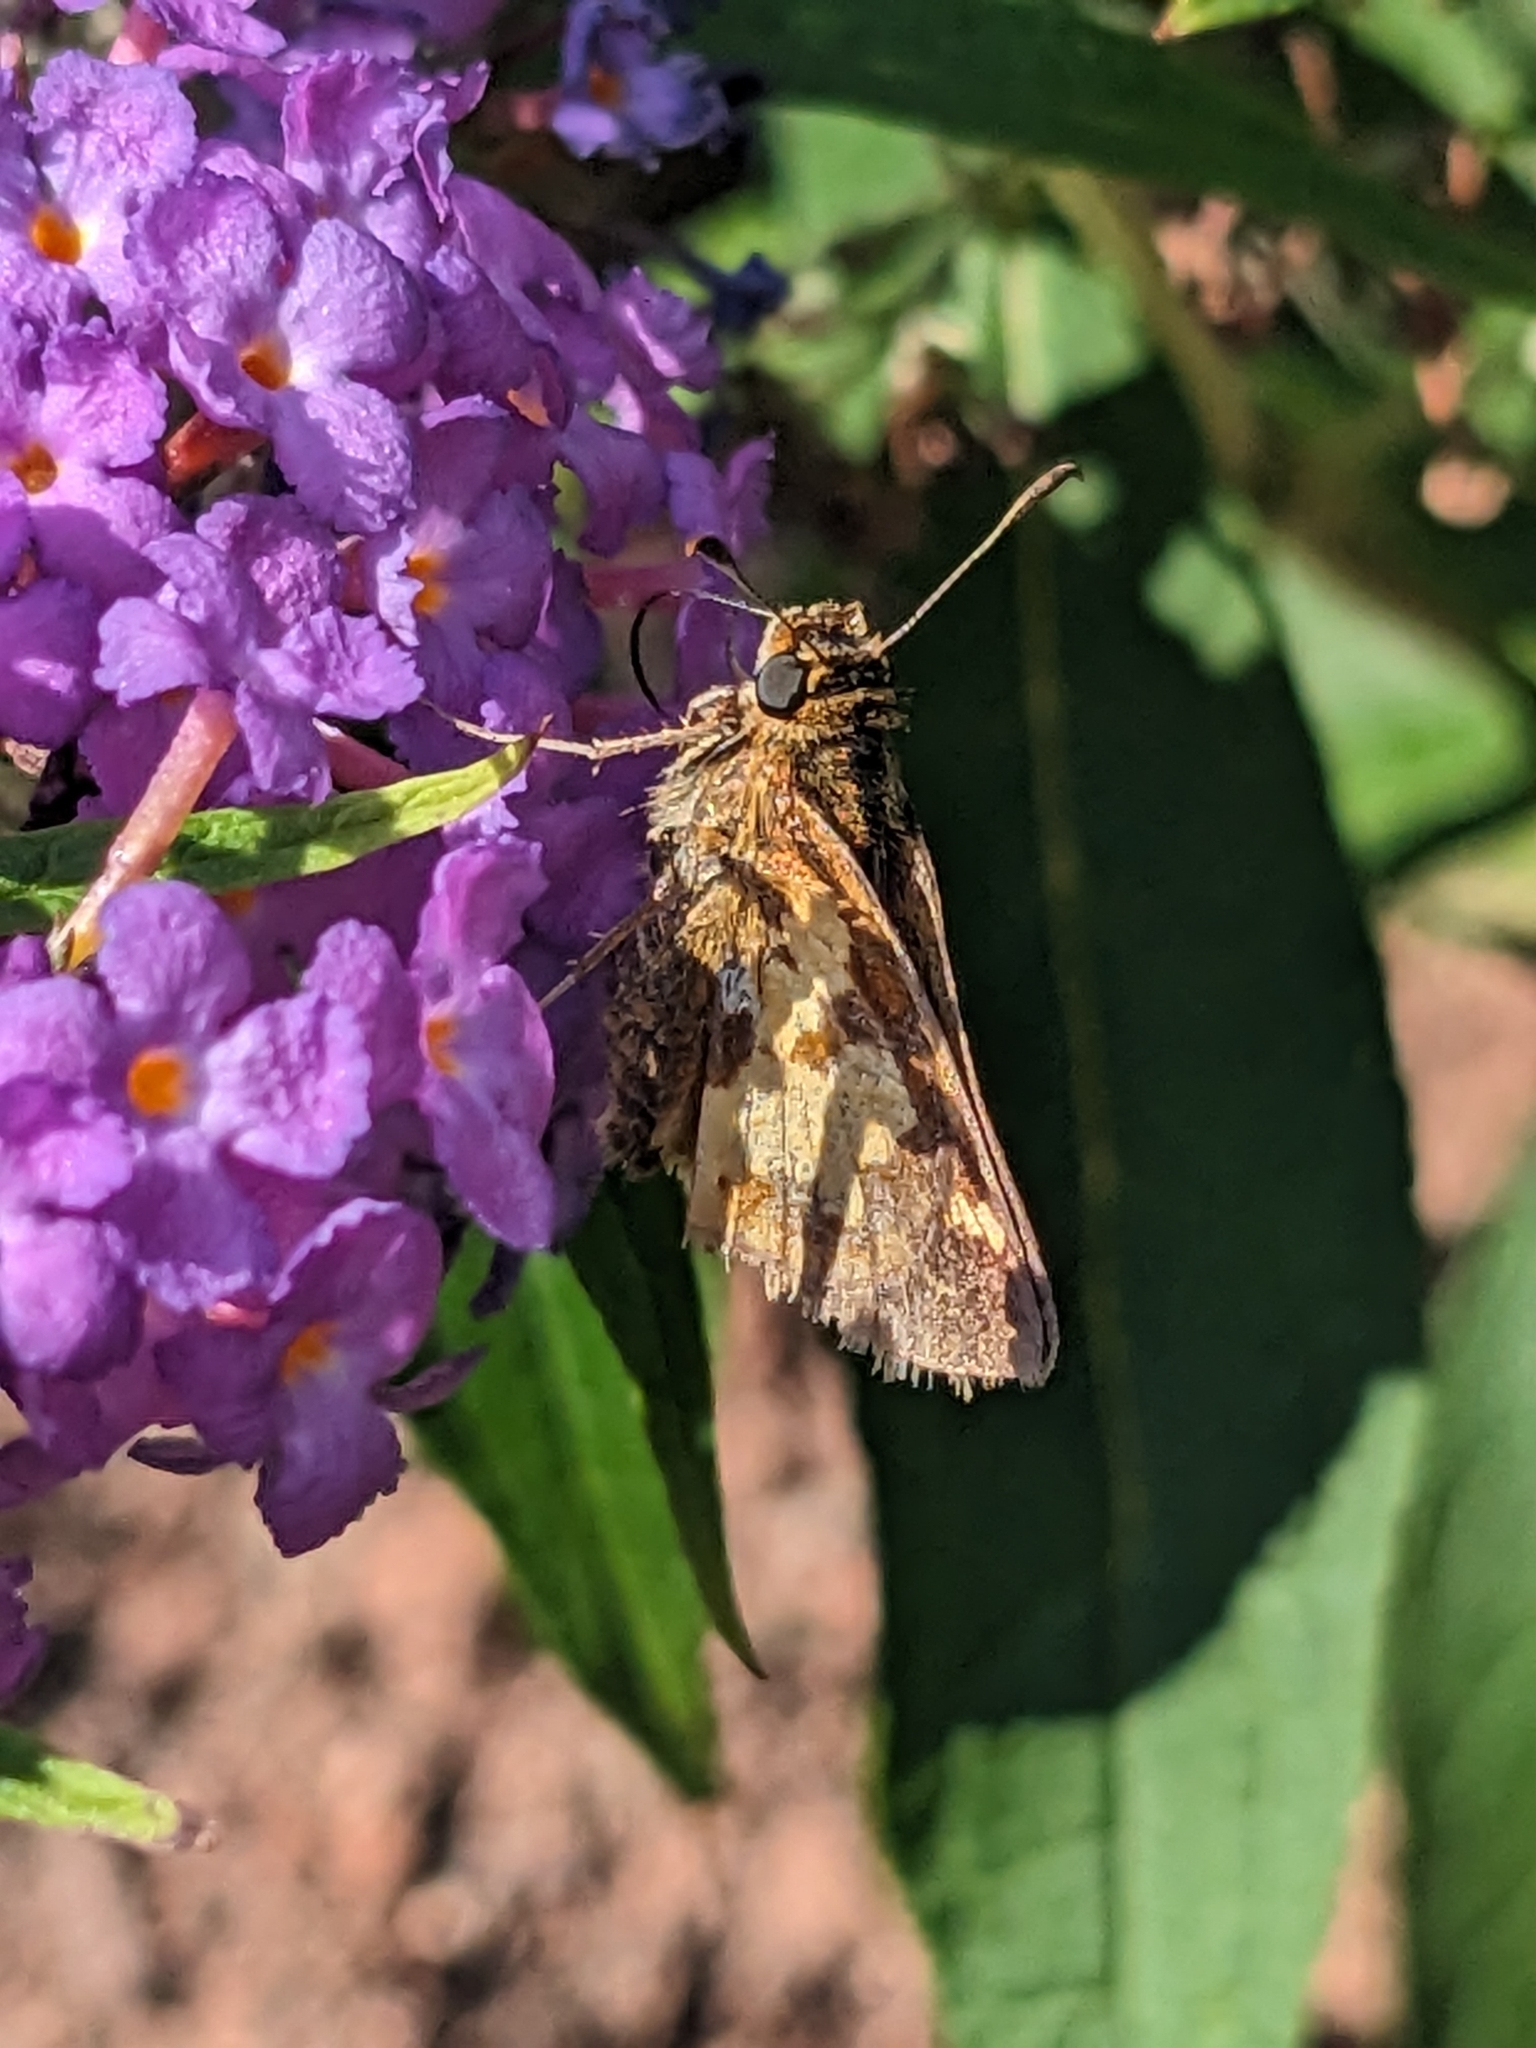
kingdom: Animalia
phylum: Arthropoda
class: Insecta
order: Lepidoptera
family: Hesperiidae
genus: Polites
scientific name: Polites coras
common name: Peck's skipper
